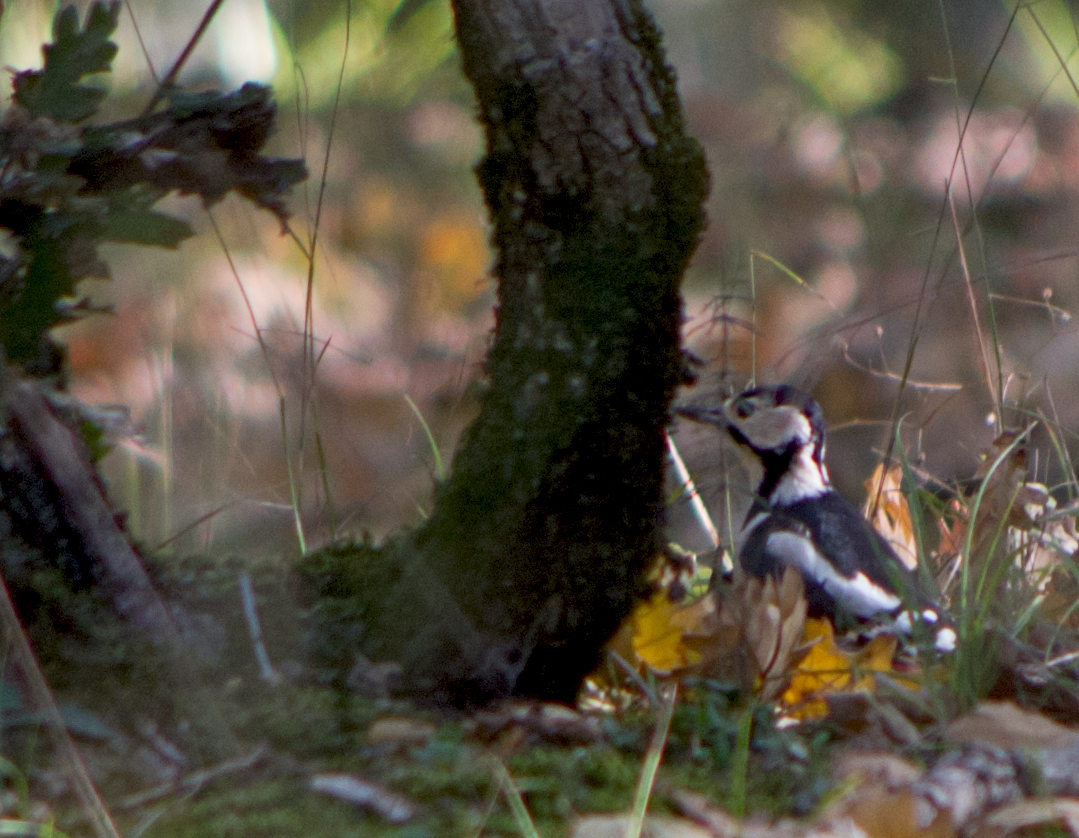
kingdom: Animalia
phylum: Chordata
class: Aves
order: Piciformes
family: Picidae
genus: Dendrocopos
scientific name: Dendrocopos major
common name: Great spotted woodpecker
